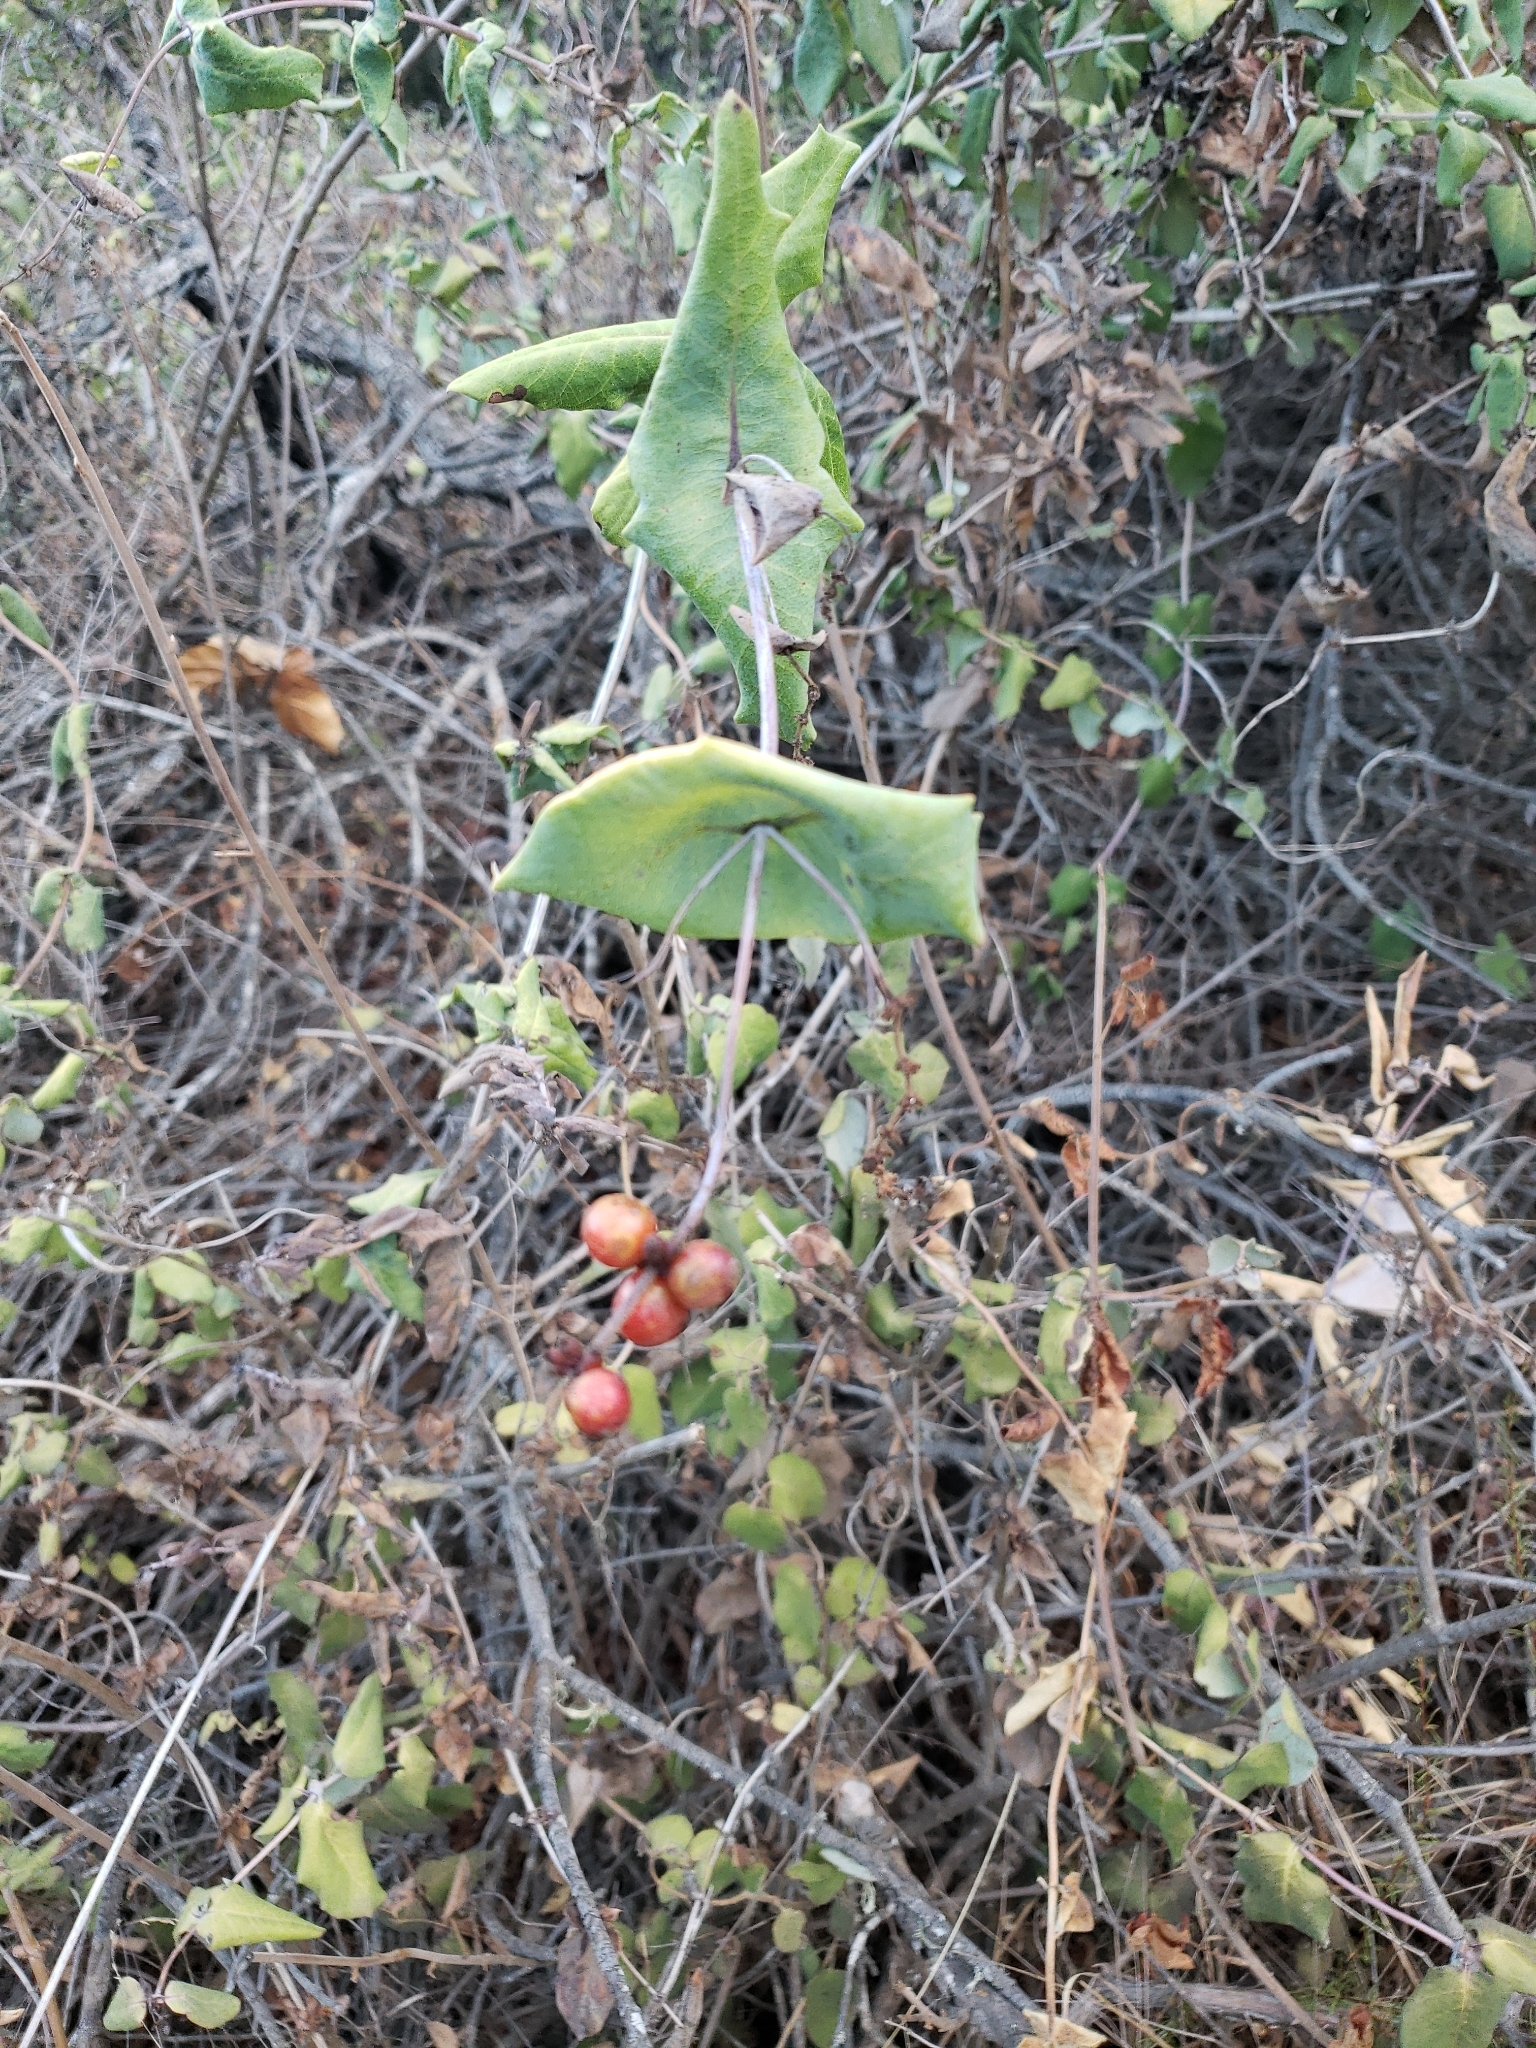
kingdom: Plantae
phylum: Tracheophyta
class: Magnoliopsida
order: Dipsacales
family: Caprifoliaceae
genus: Lonicera
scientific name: Lonicera hispidula
